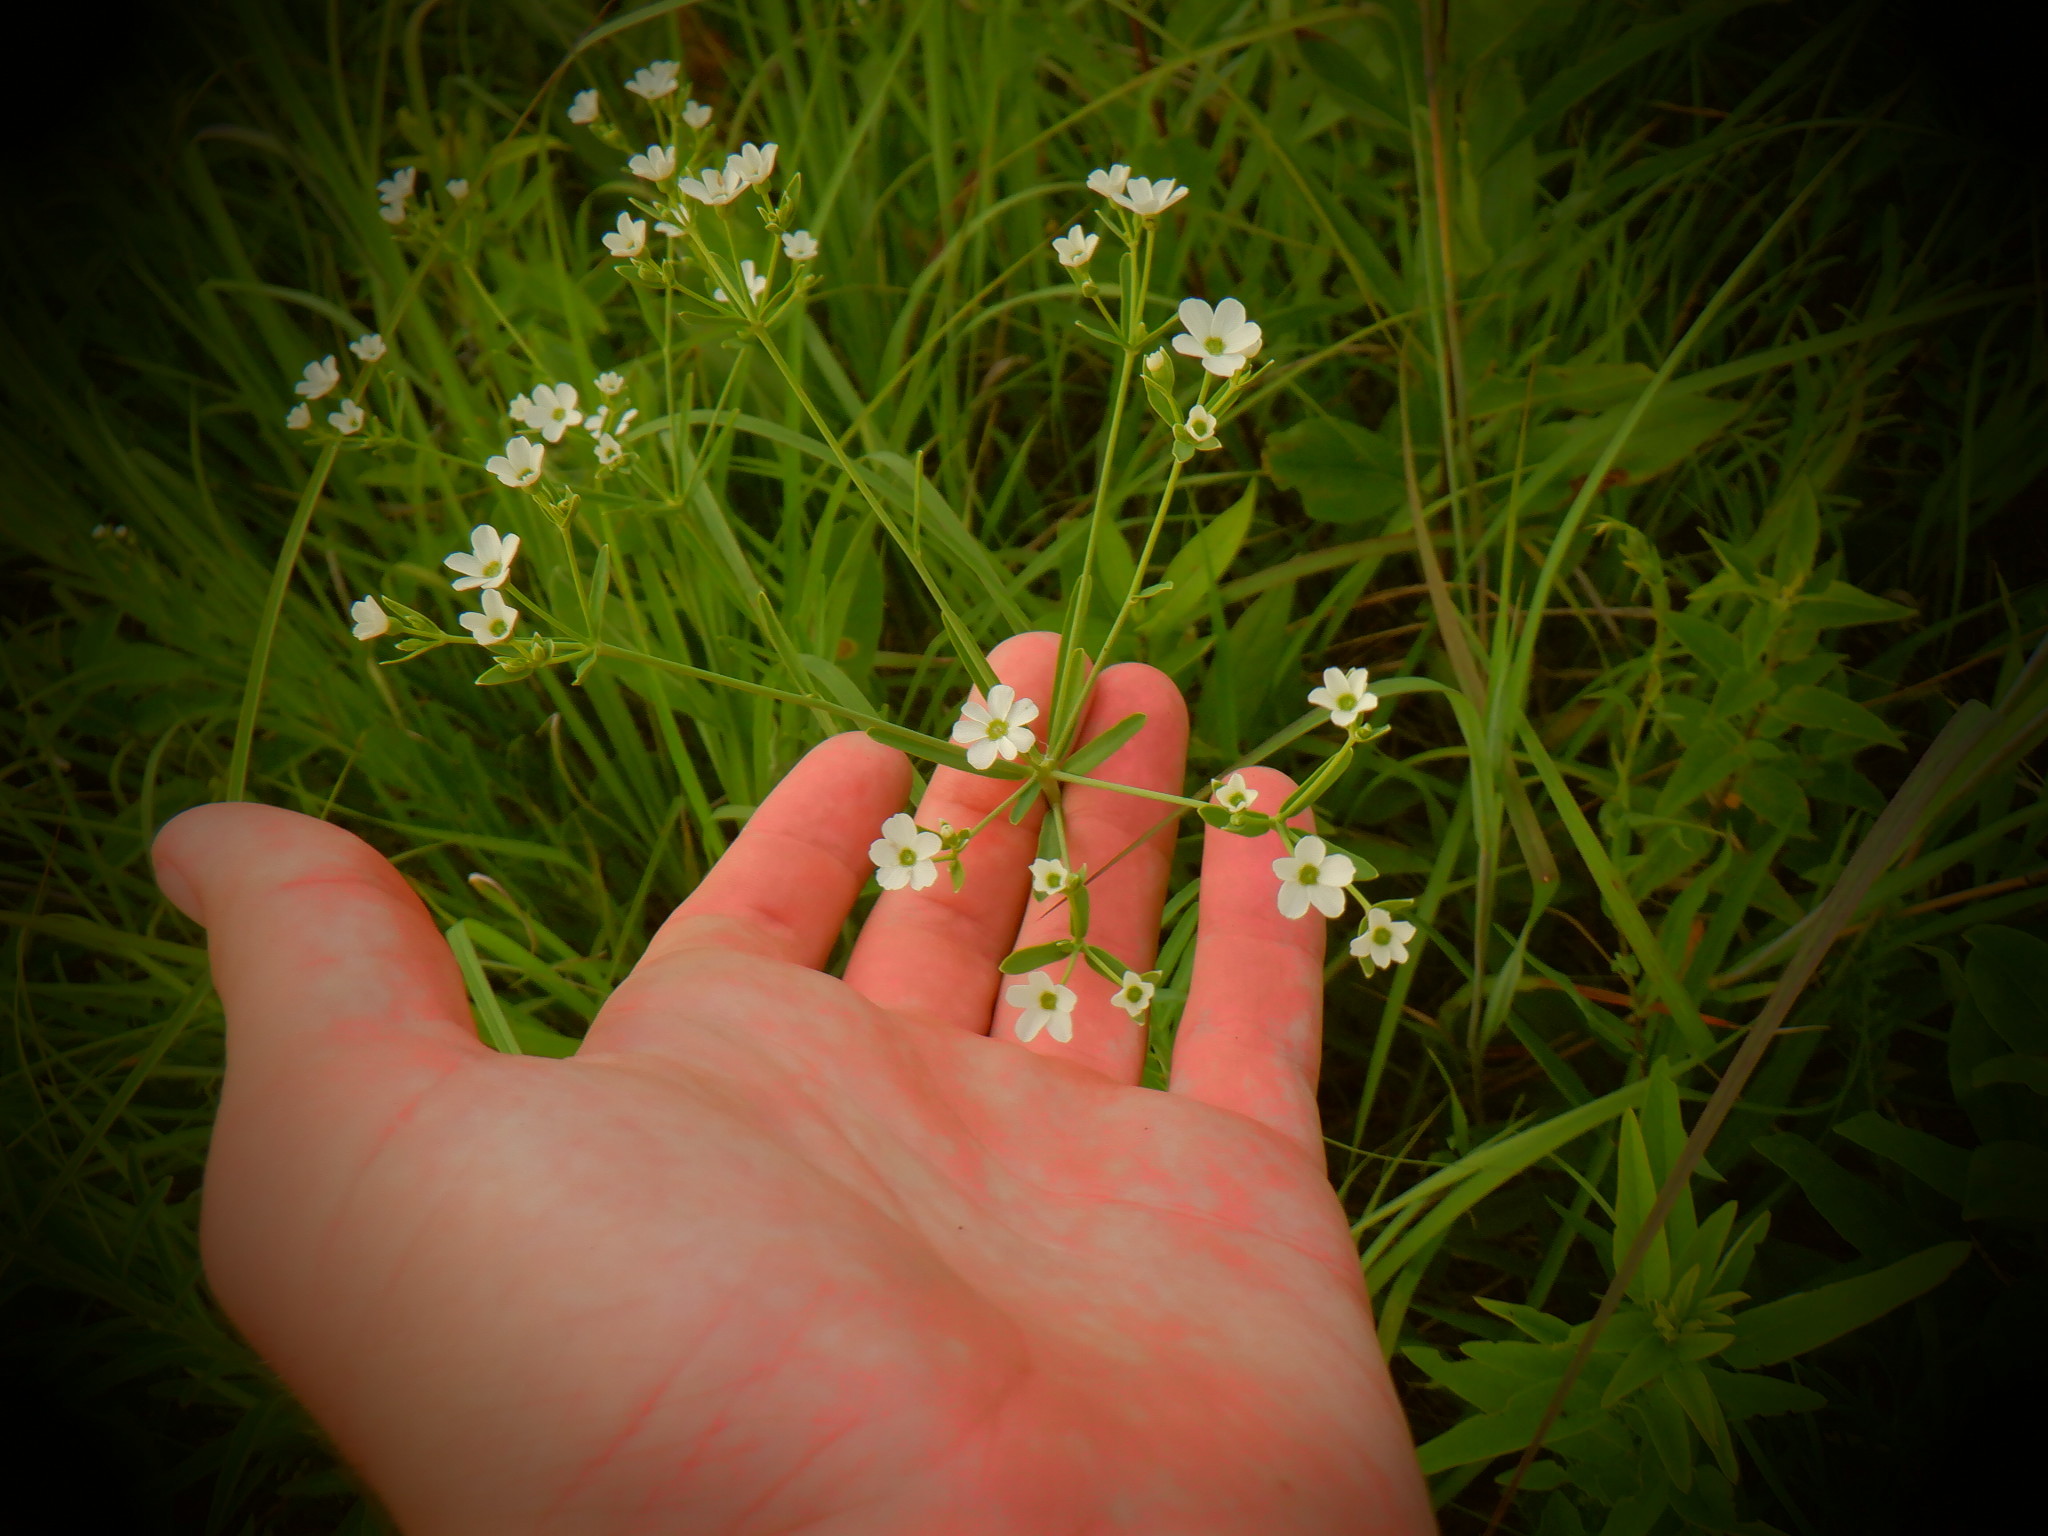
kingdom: Plantae
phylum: Tracheophyta
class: Magnoliopsida
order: Malpighiales
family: Euphorbiaceae
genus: Euphorbia
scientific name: Euphorbia corollata
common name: Flowering spurge
